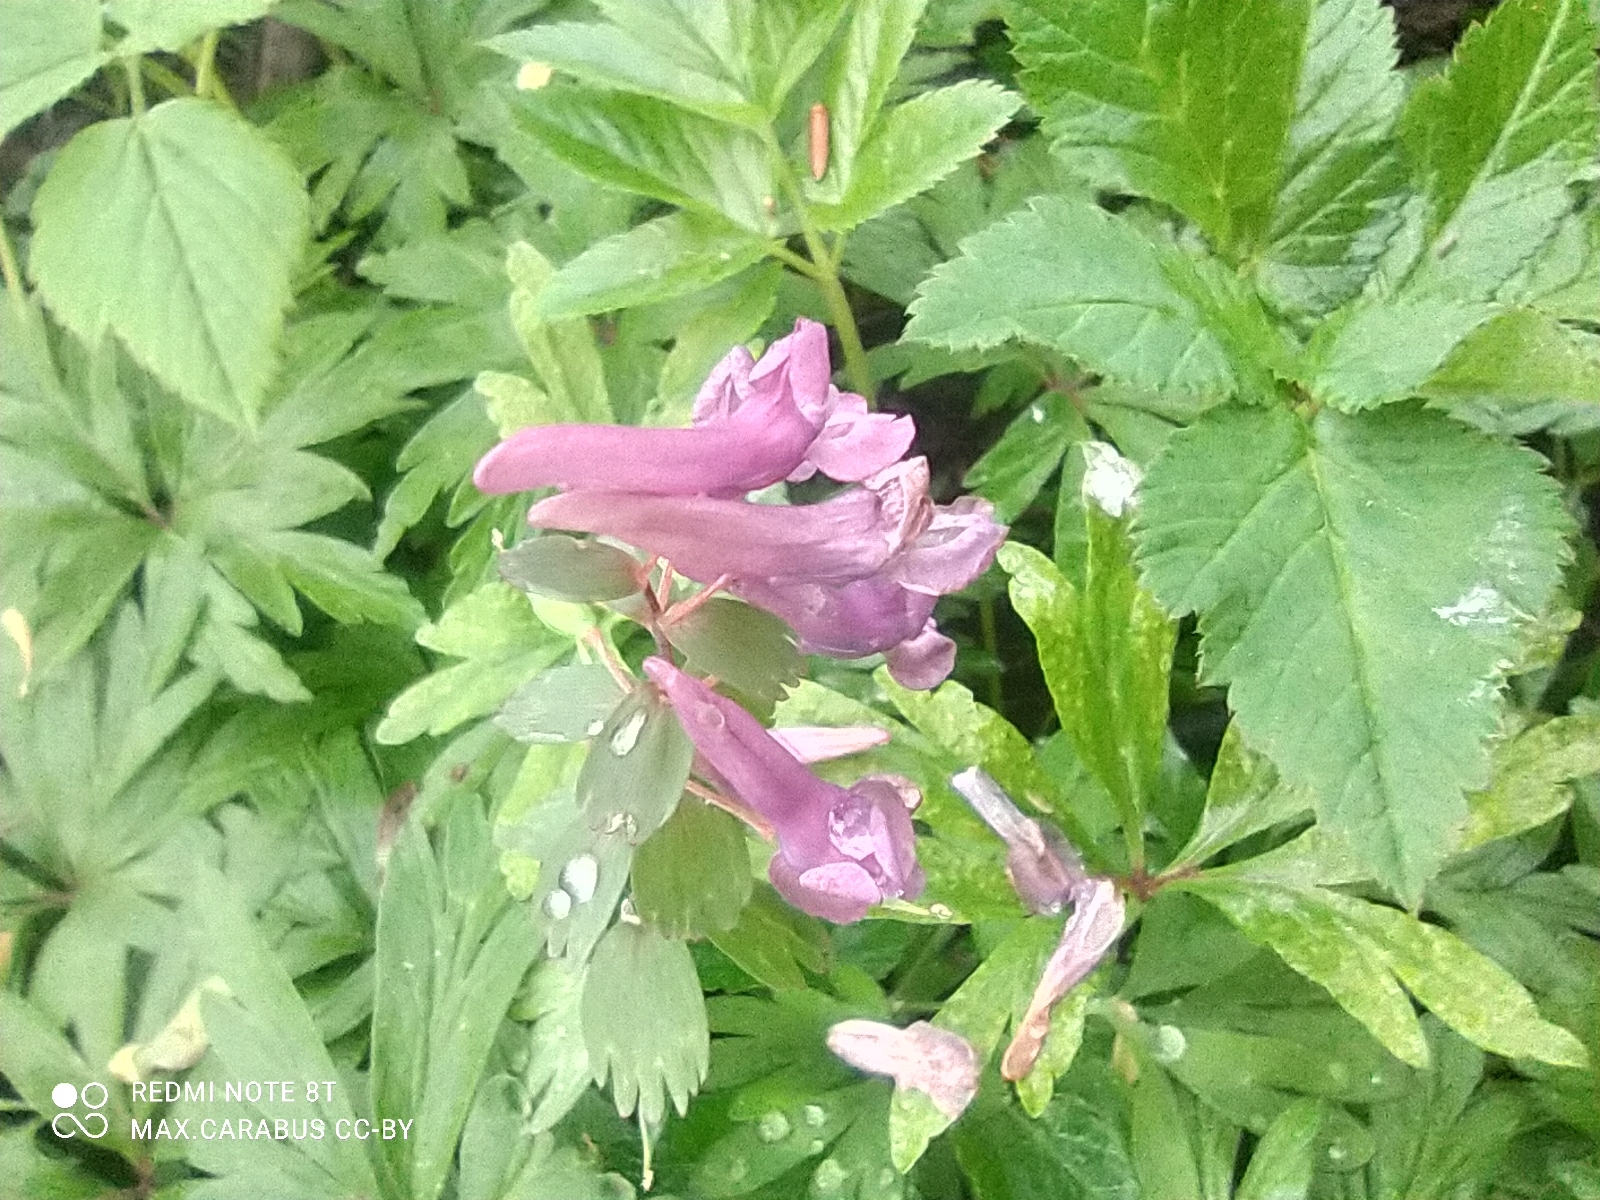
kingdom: Plantae
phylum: Tracheophyta
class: Magnoliopsida
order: Ranunculales
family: Papaveraceae
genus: Corydalis
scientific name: Corydalis solida
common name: Bird-in-a-bush
